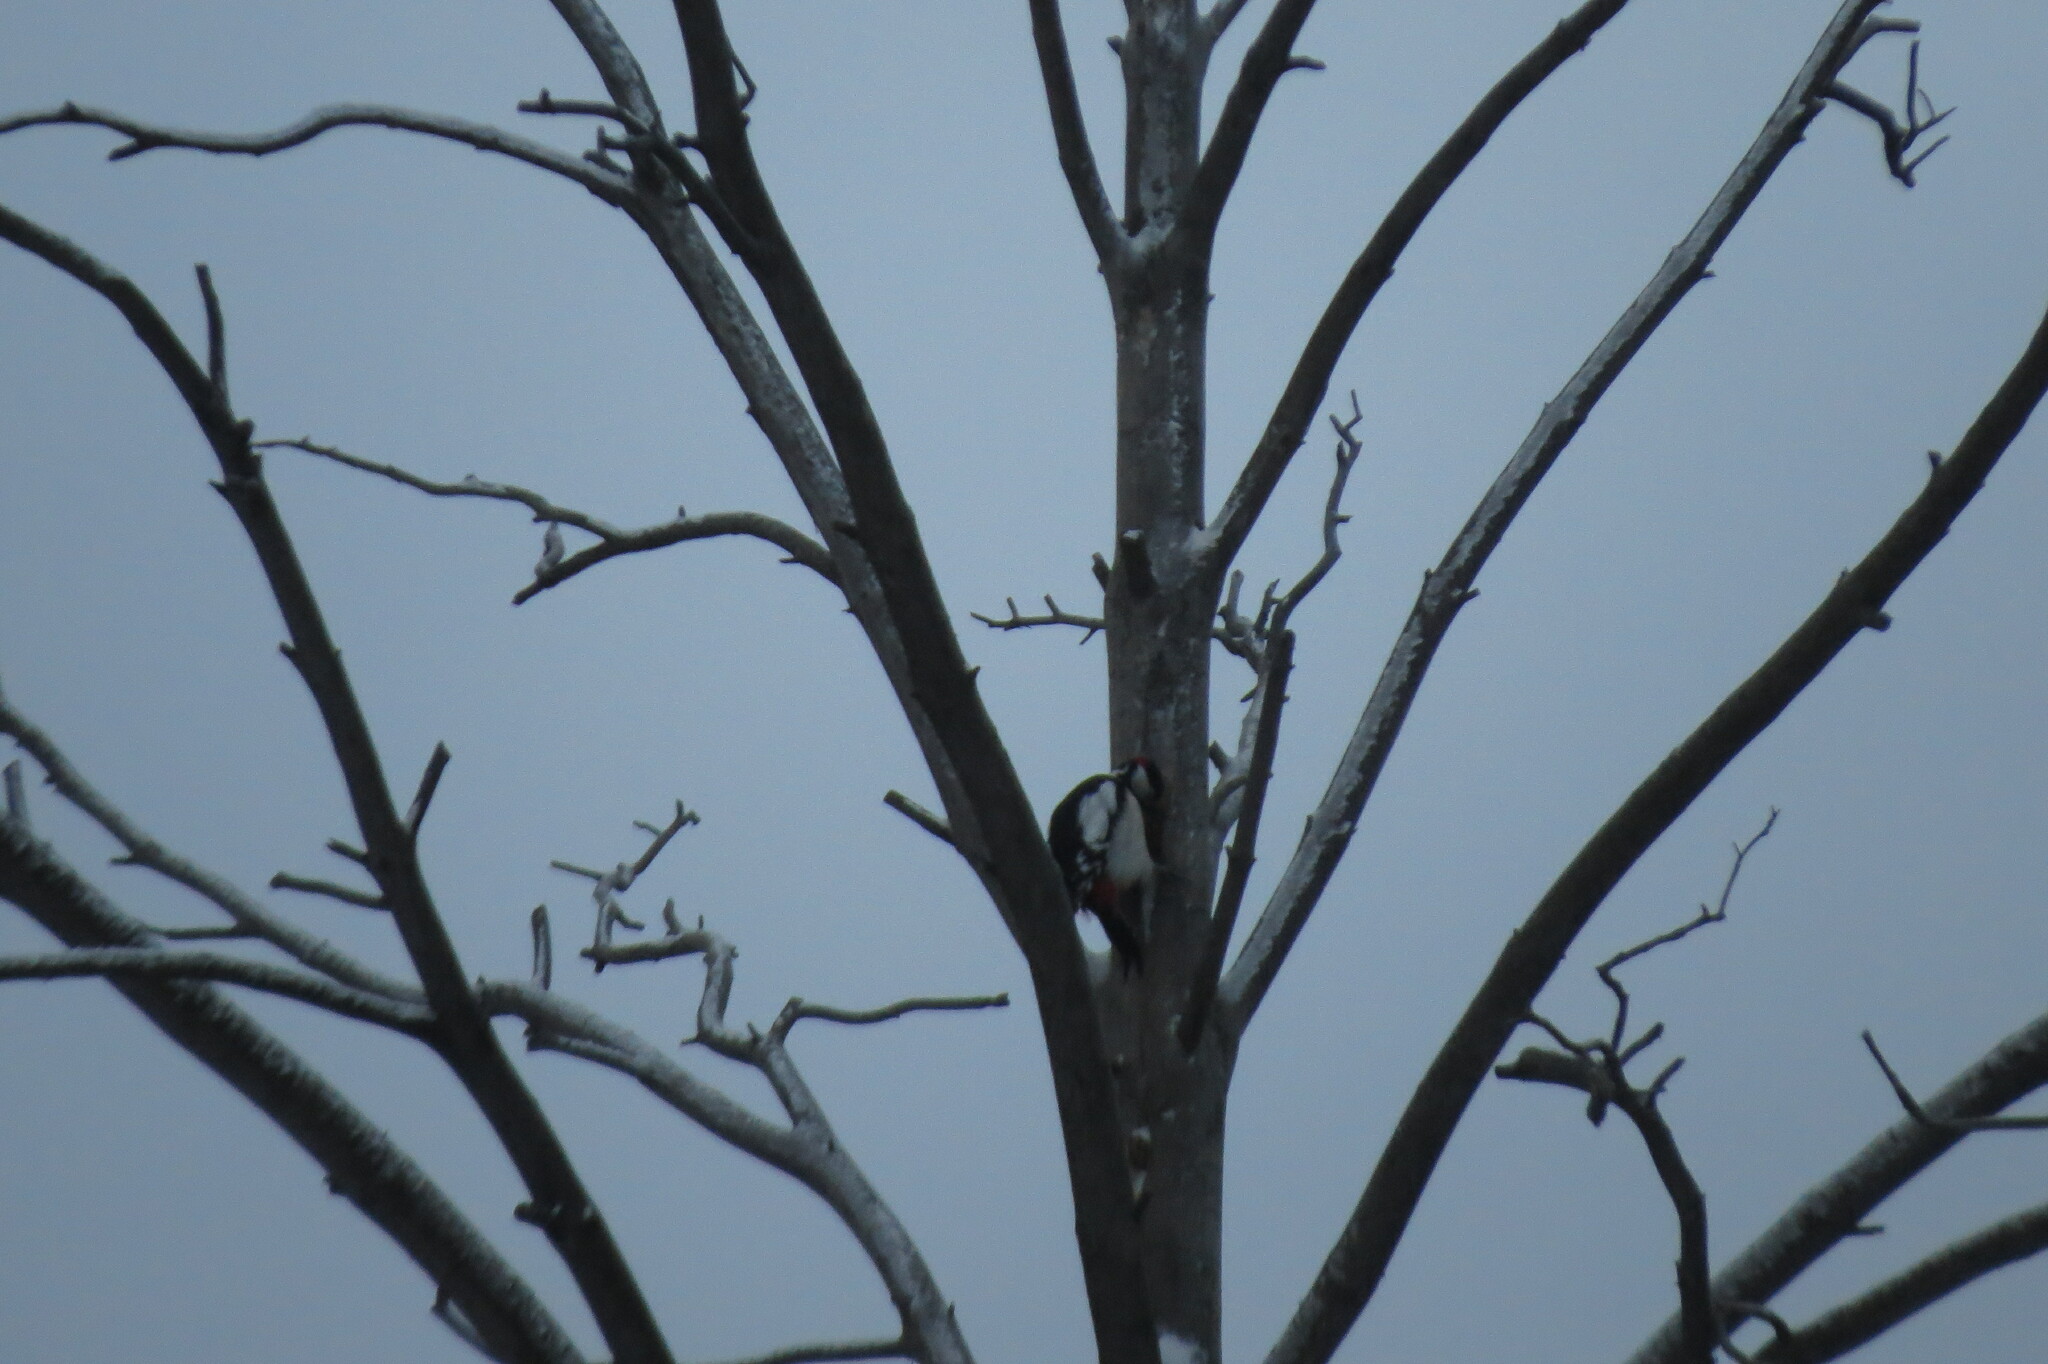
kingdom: Animalia
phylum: Chordata
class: Aves
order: Piciformes
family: Picidae
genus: Dendrocopos
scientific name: Dendrocopos major
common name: Great spotted woodpecker
